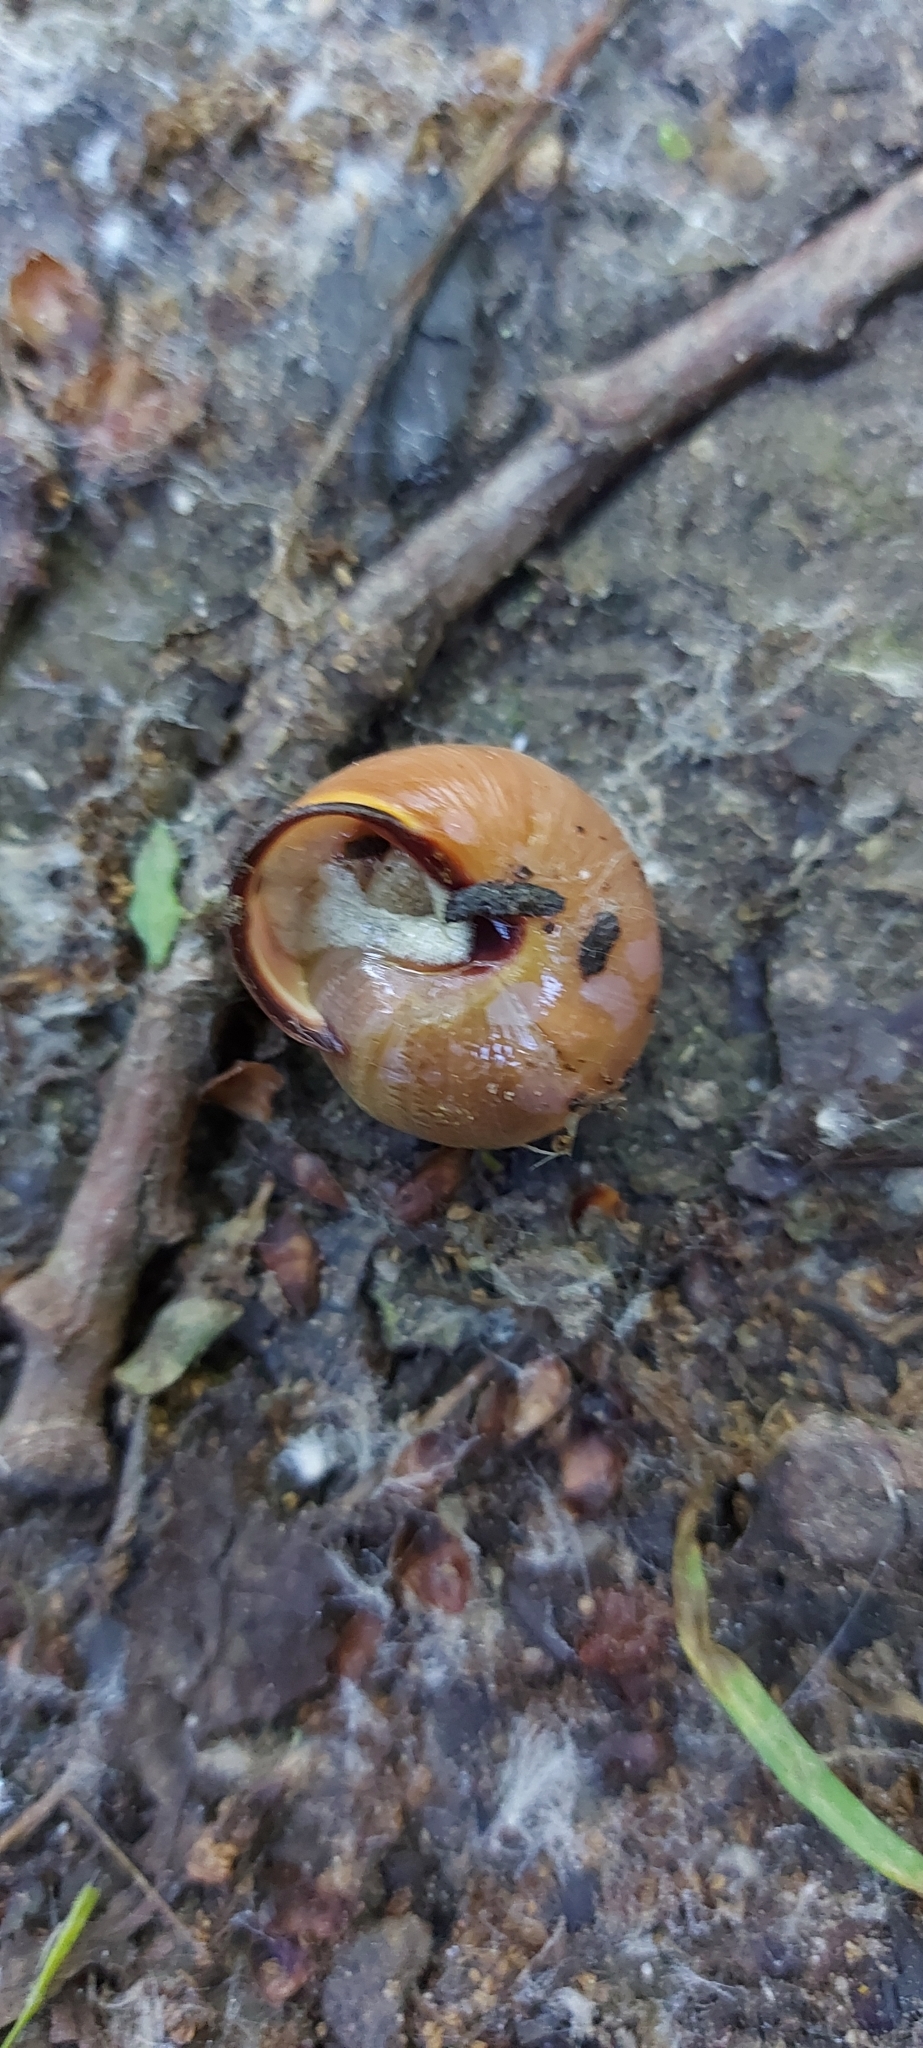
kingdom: Animalia
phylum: Mollusca
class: Gastropoda
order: Stylommatophora
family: Helicidae
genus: Cepaea
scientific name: Cepaea nemoralis
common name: Grovesnail
